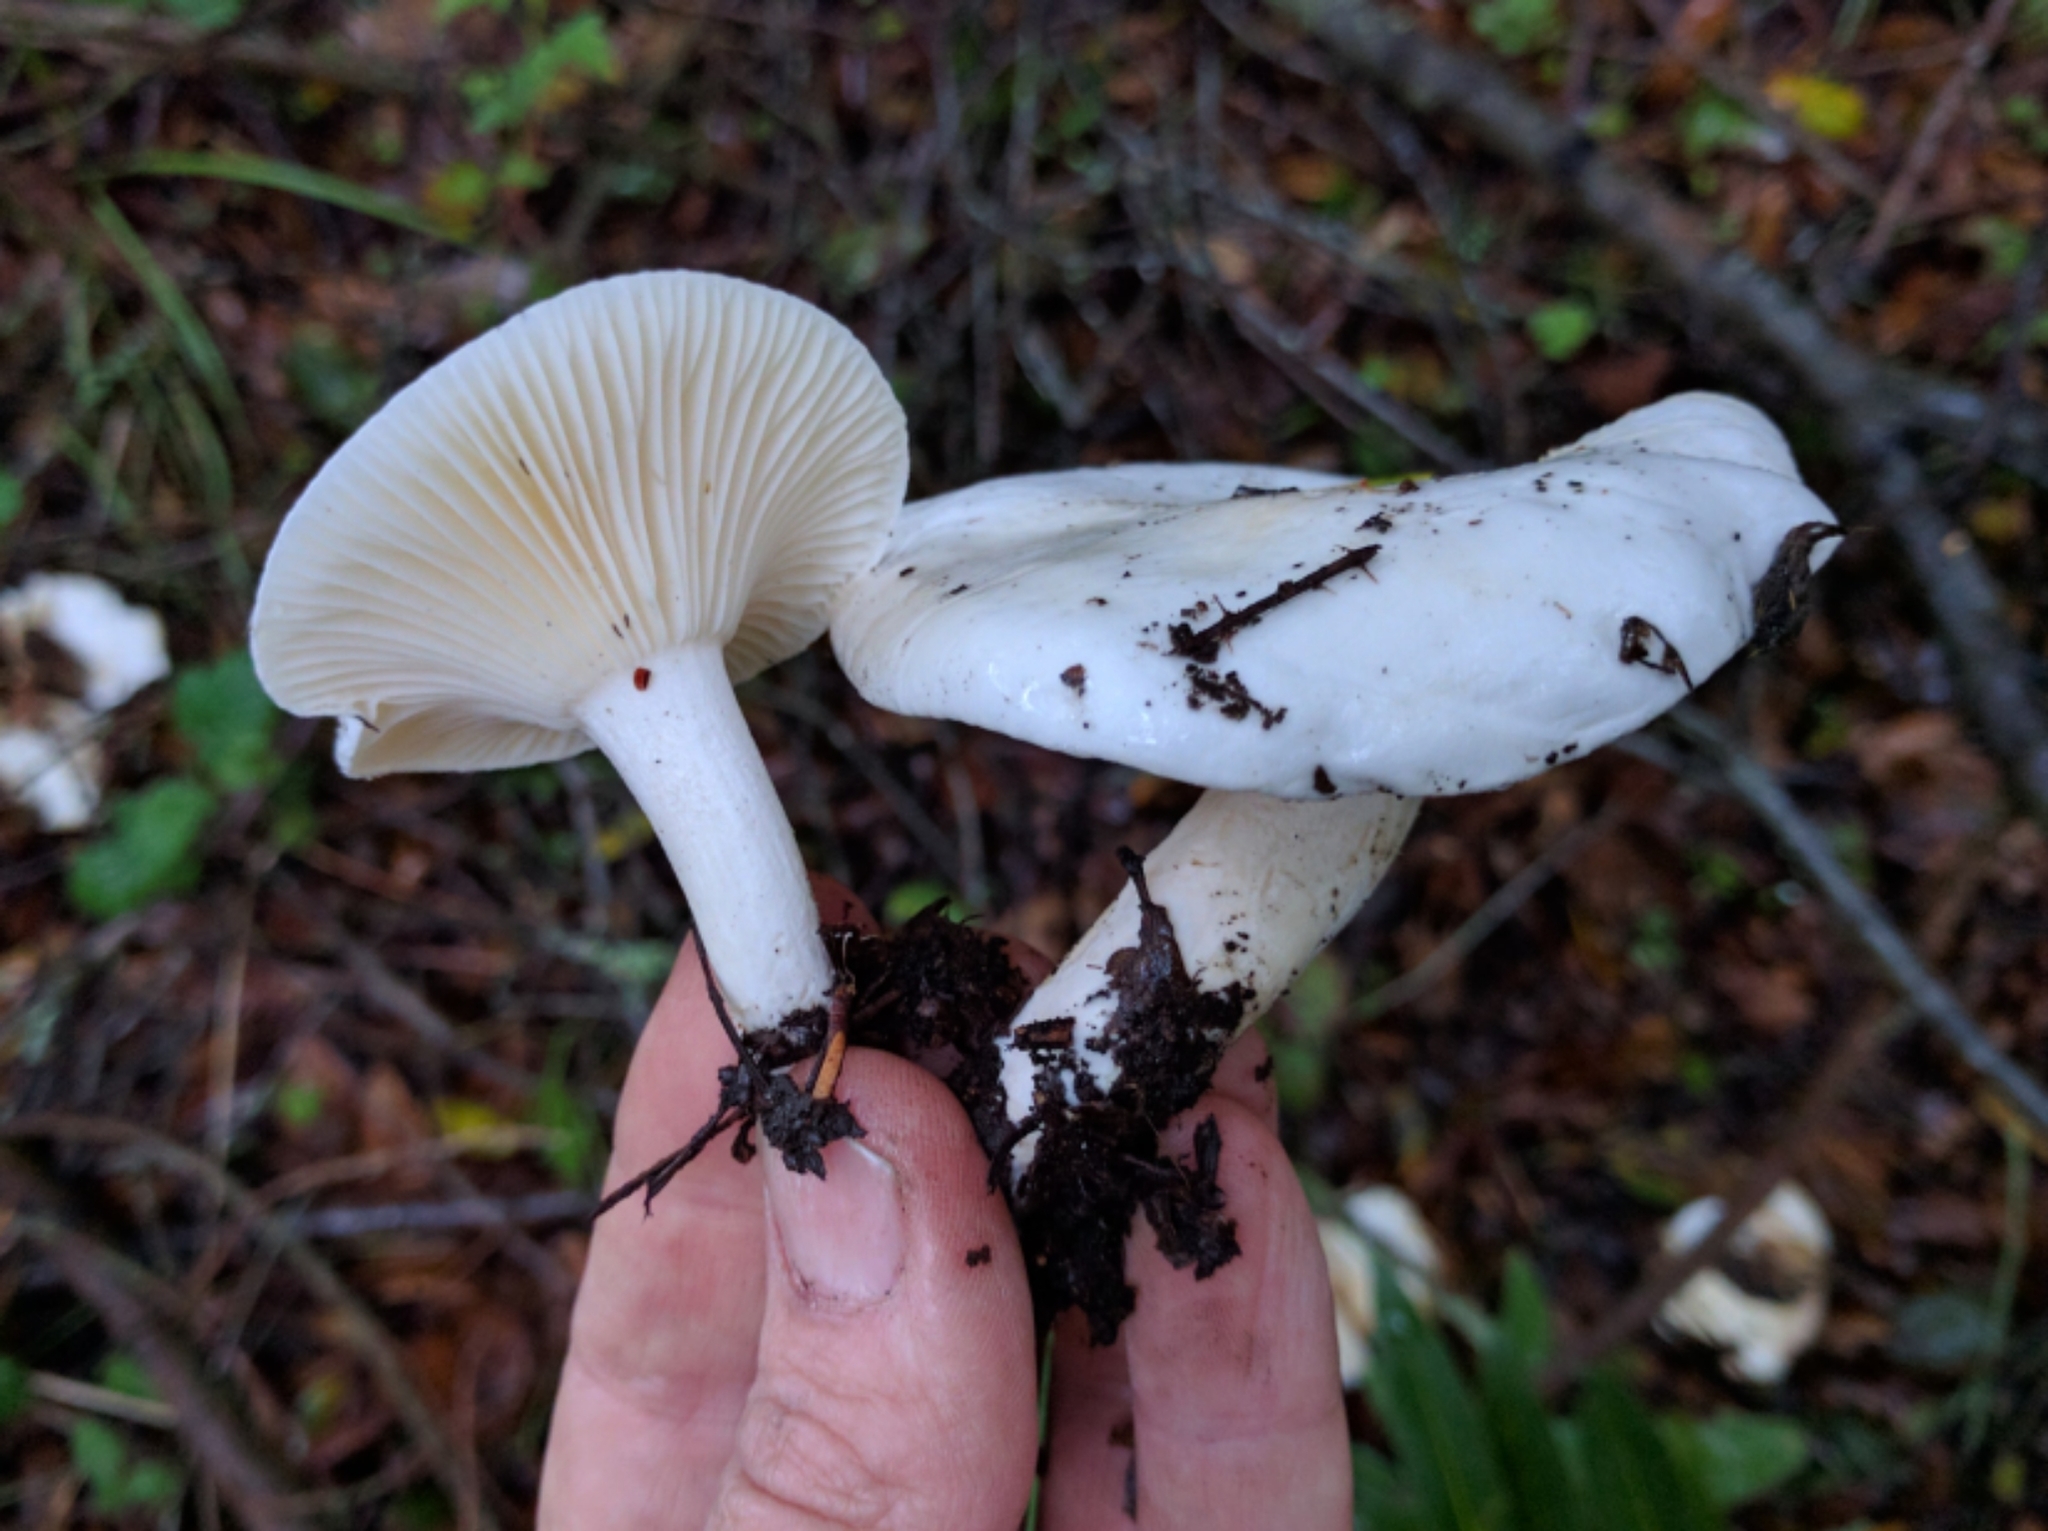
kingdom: Fungi
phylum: Basidiomycota
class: Agaricomycetes
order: Agaricales
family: Hygrophoraceae
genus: Hygrophorus
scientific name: Hygrophorus eburneus
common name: Ivory wax-cap
